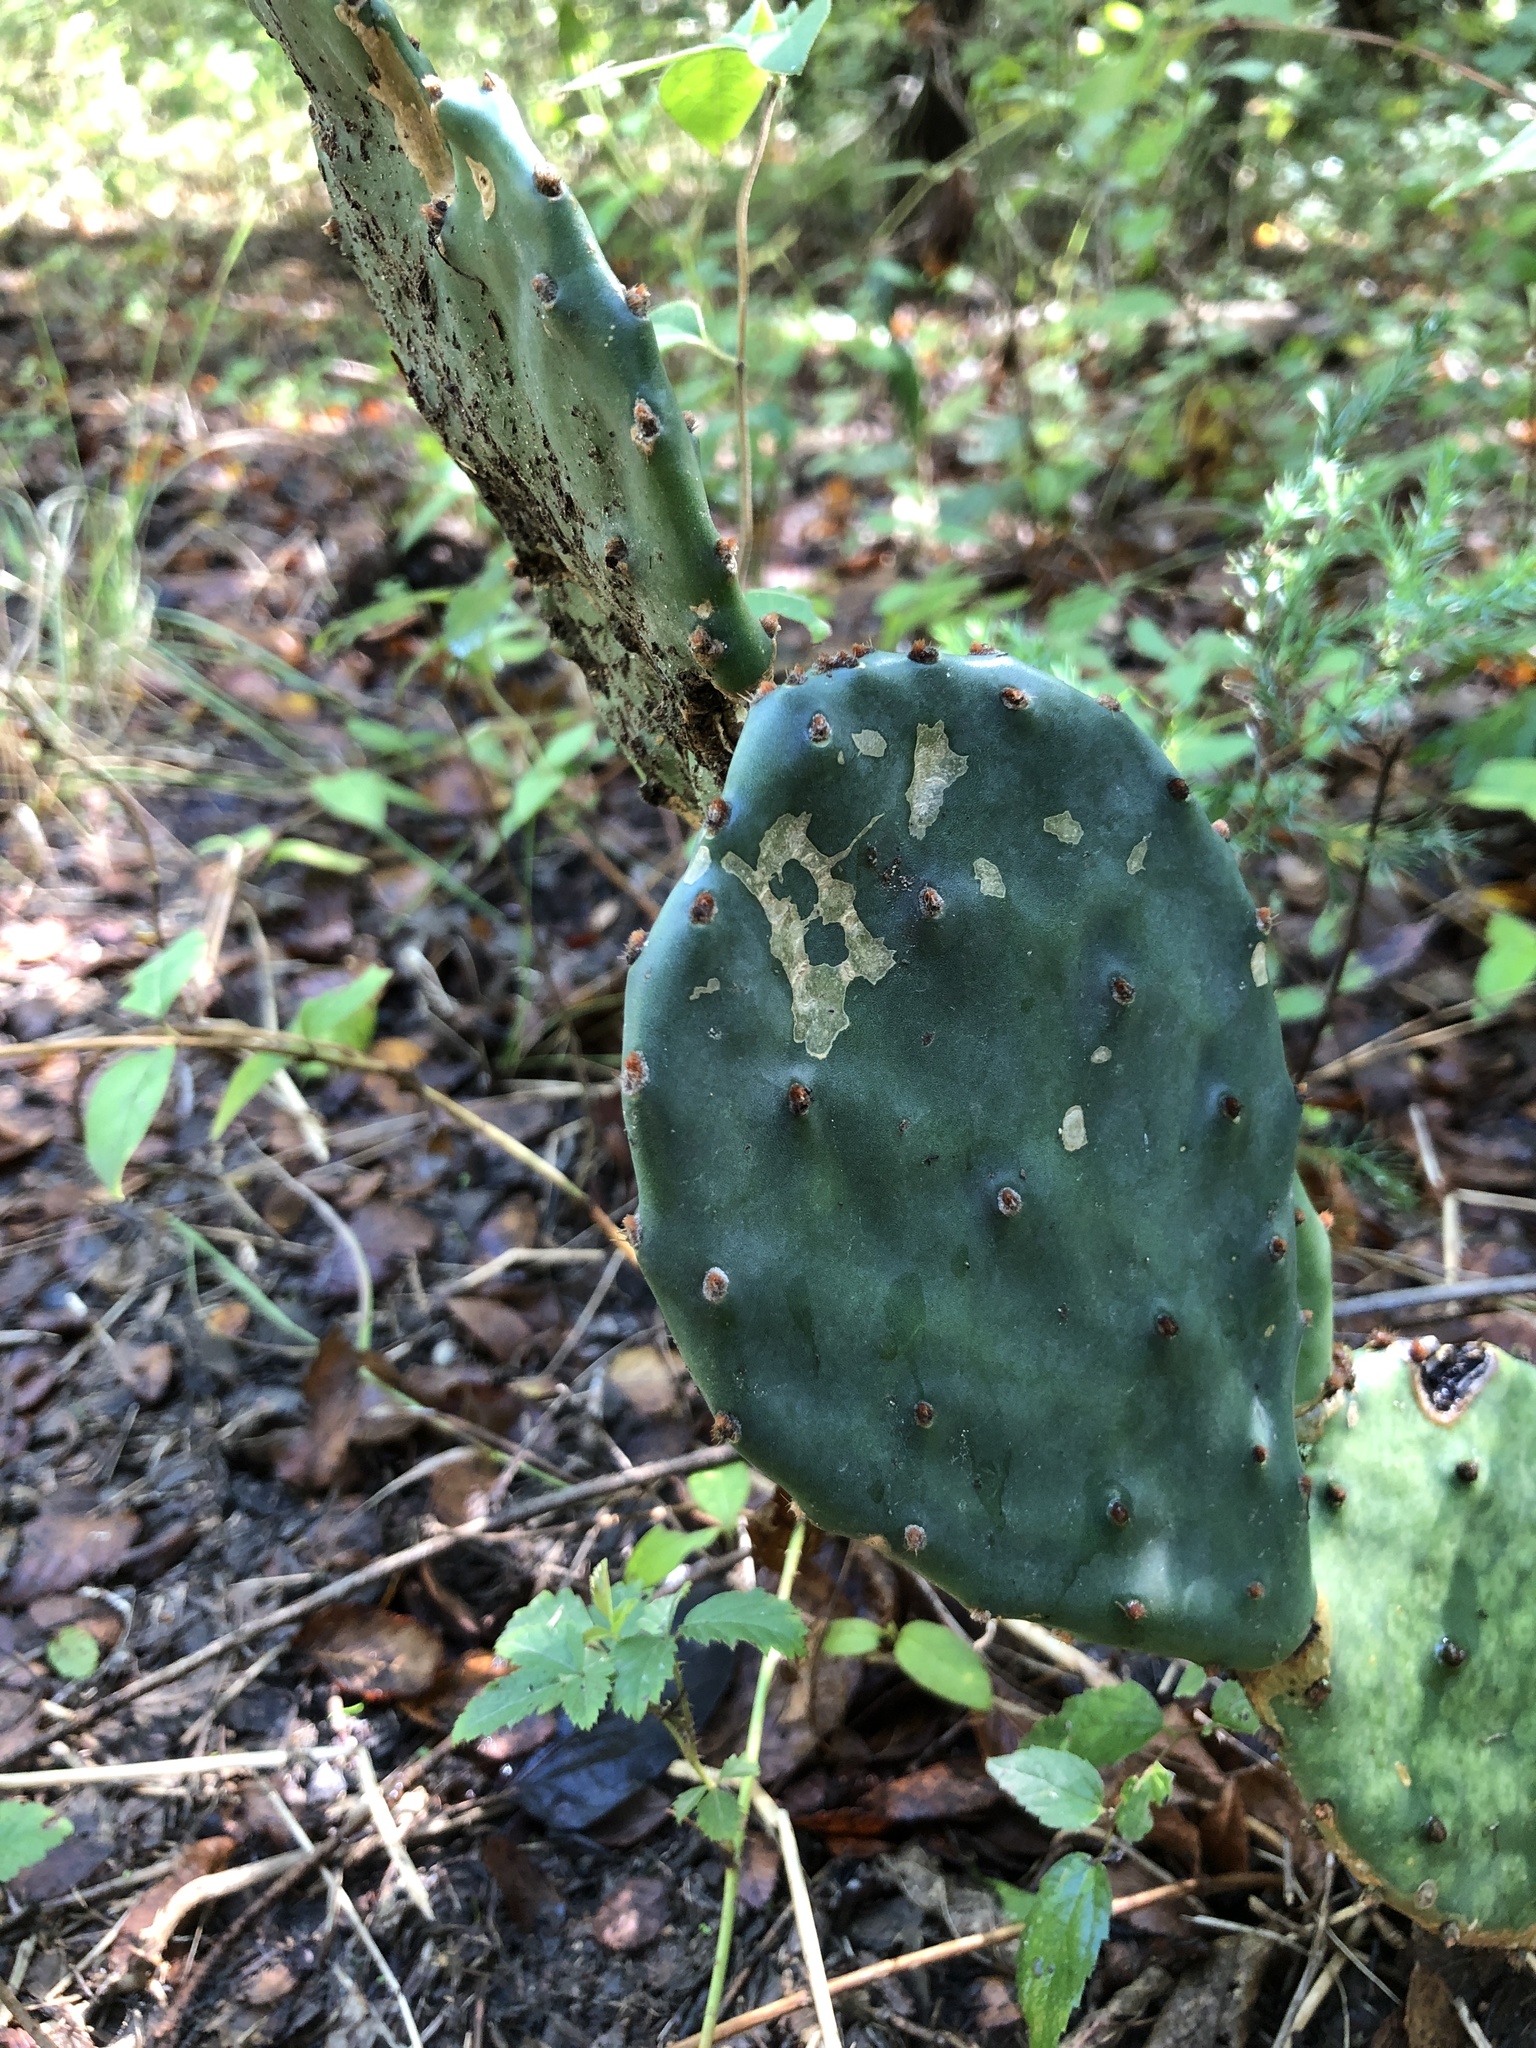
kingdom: Plantae
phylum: Tracheophyta
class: Magnoliopsida
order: Caryophyllales
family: Cactaceae
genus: Opuntia
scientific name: Opuntia macrorhiza
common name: Grassland pricklypear
